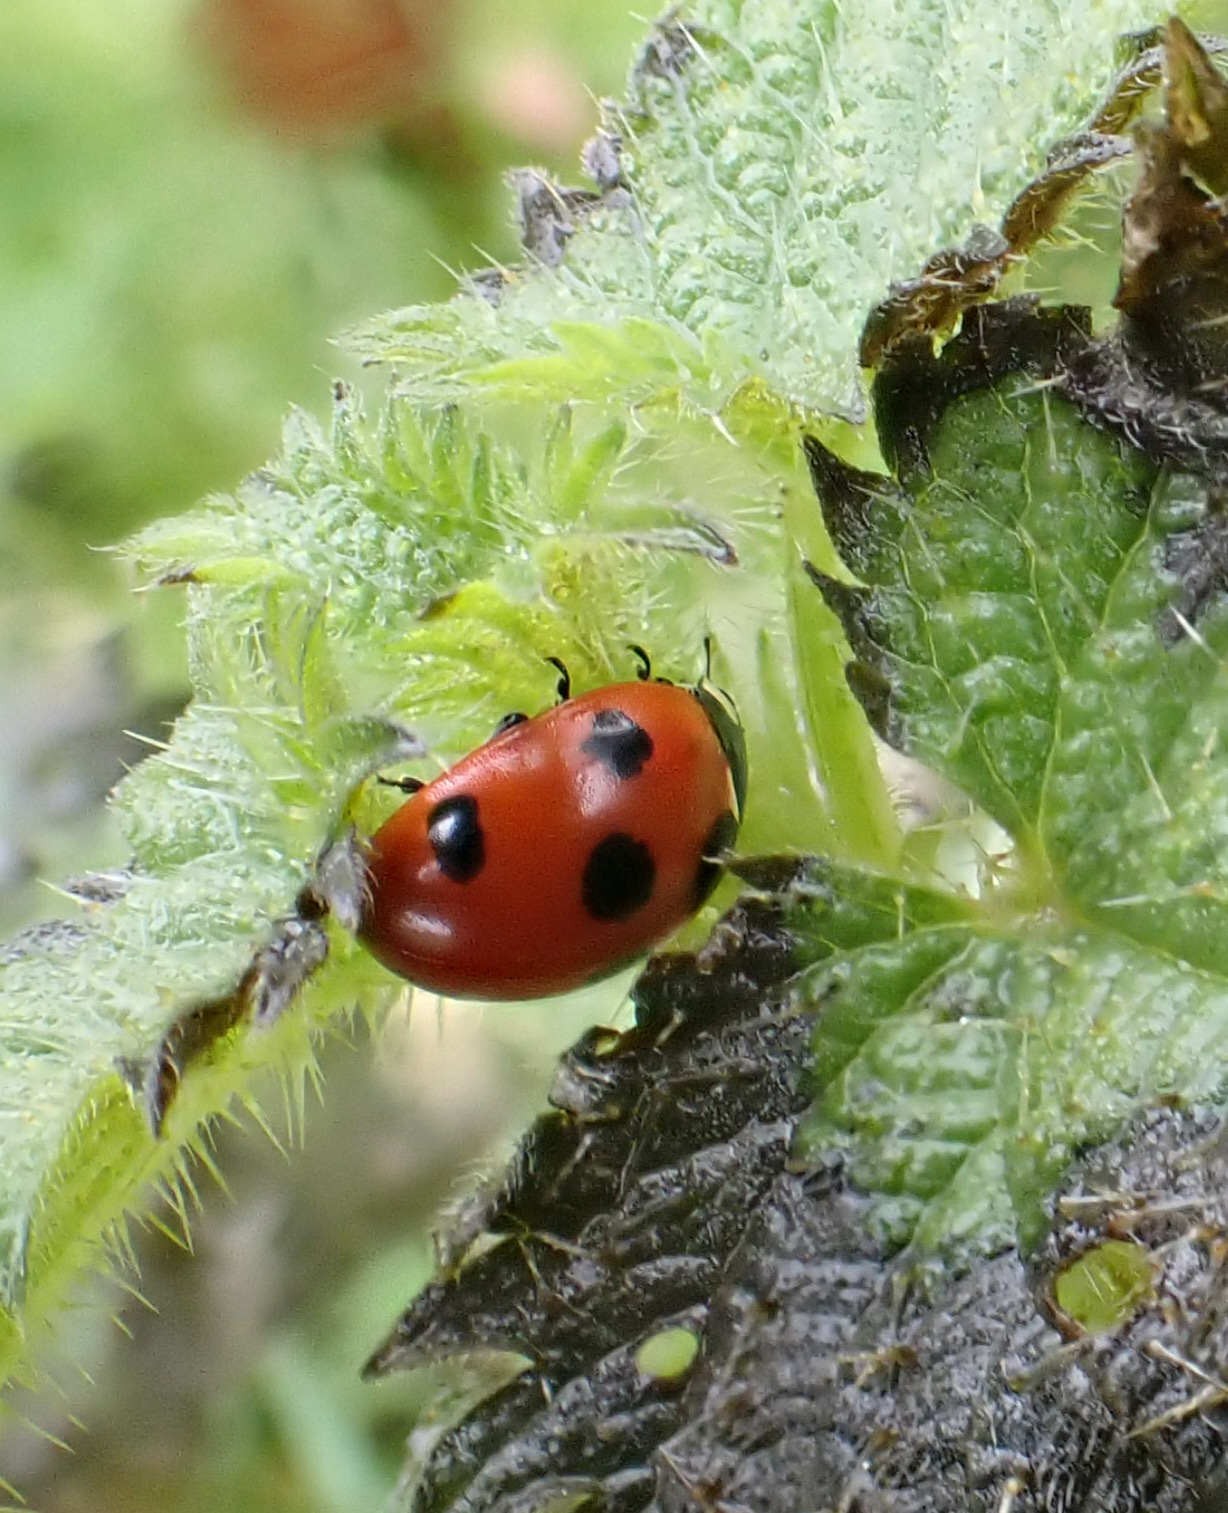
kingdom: Animalia
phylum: Arthropoda
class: Insecta
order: Coleoptera
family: Coccinellidae
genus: Coccinella
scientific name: Coccinella septempunctata
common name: Sevenspotted lady beetle
